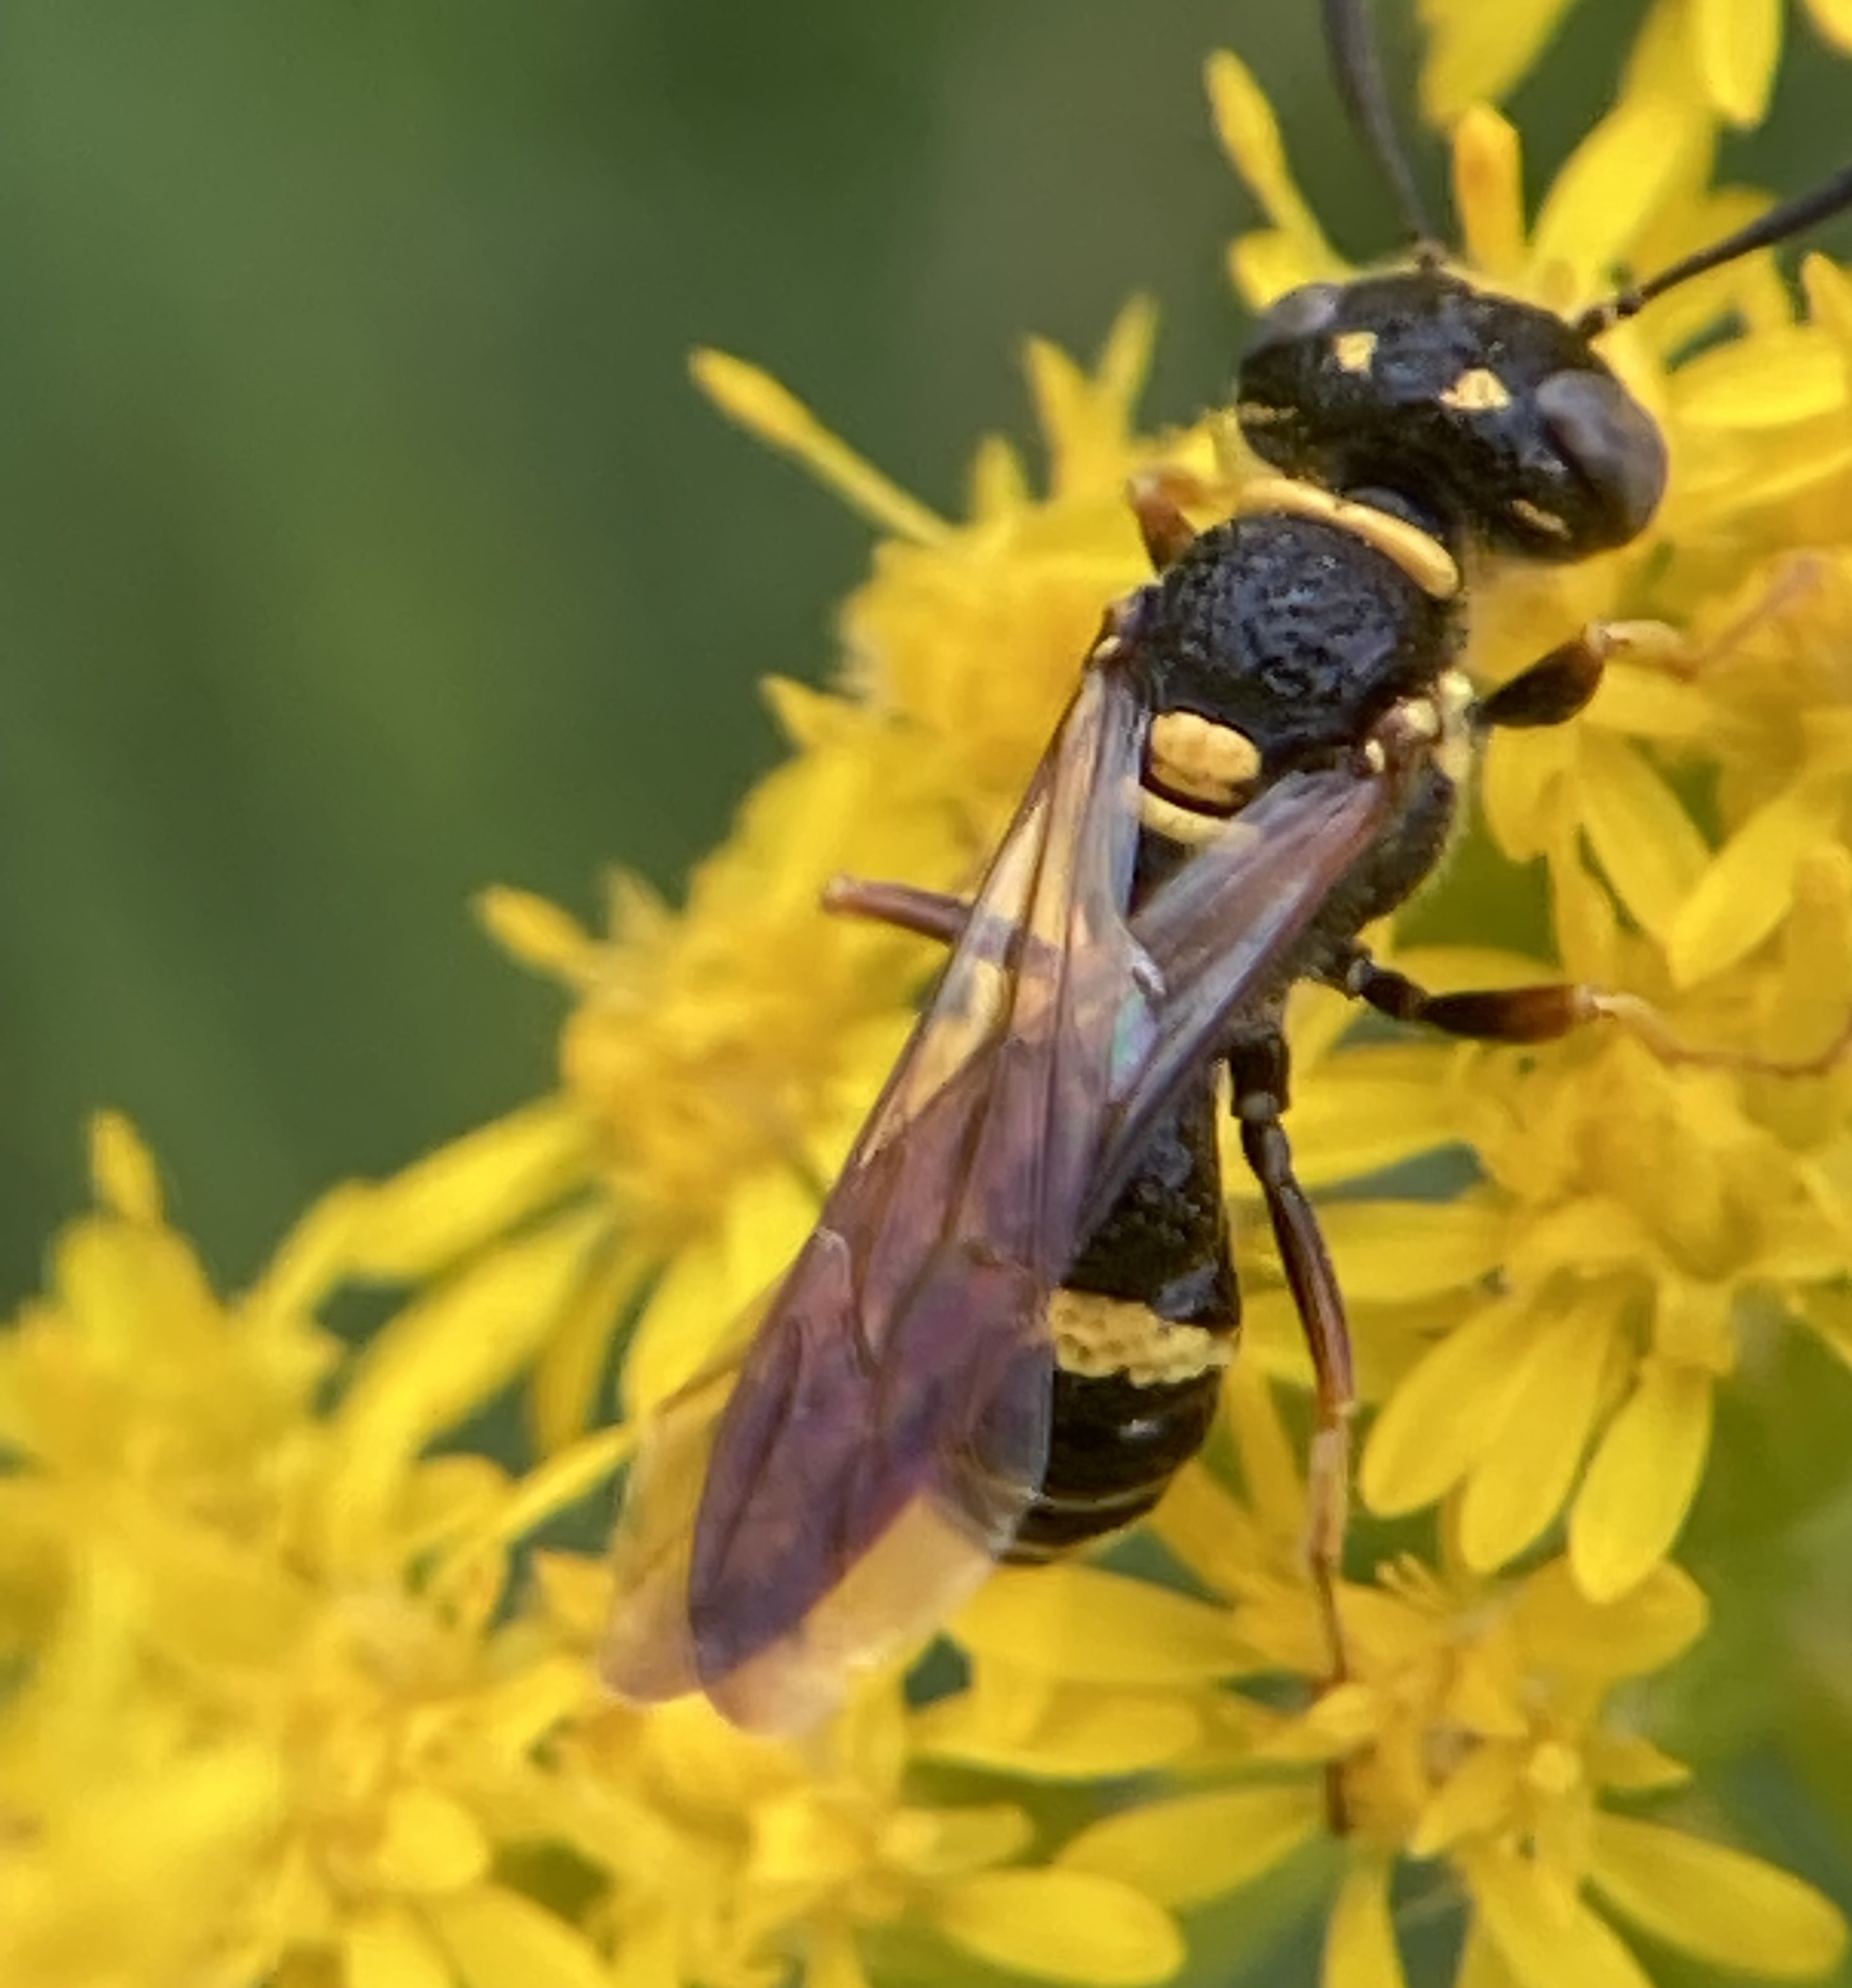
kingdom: Animalia
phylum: Arthropoda
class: Insecta
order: Hymenoptera
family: Crabronidae
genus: Philanthus
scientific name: Philanthus gibbosus
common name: Humped beewolf
